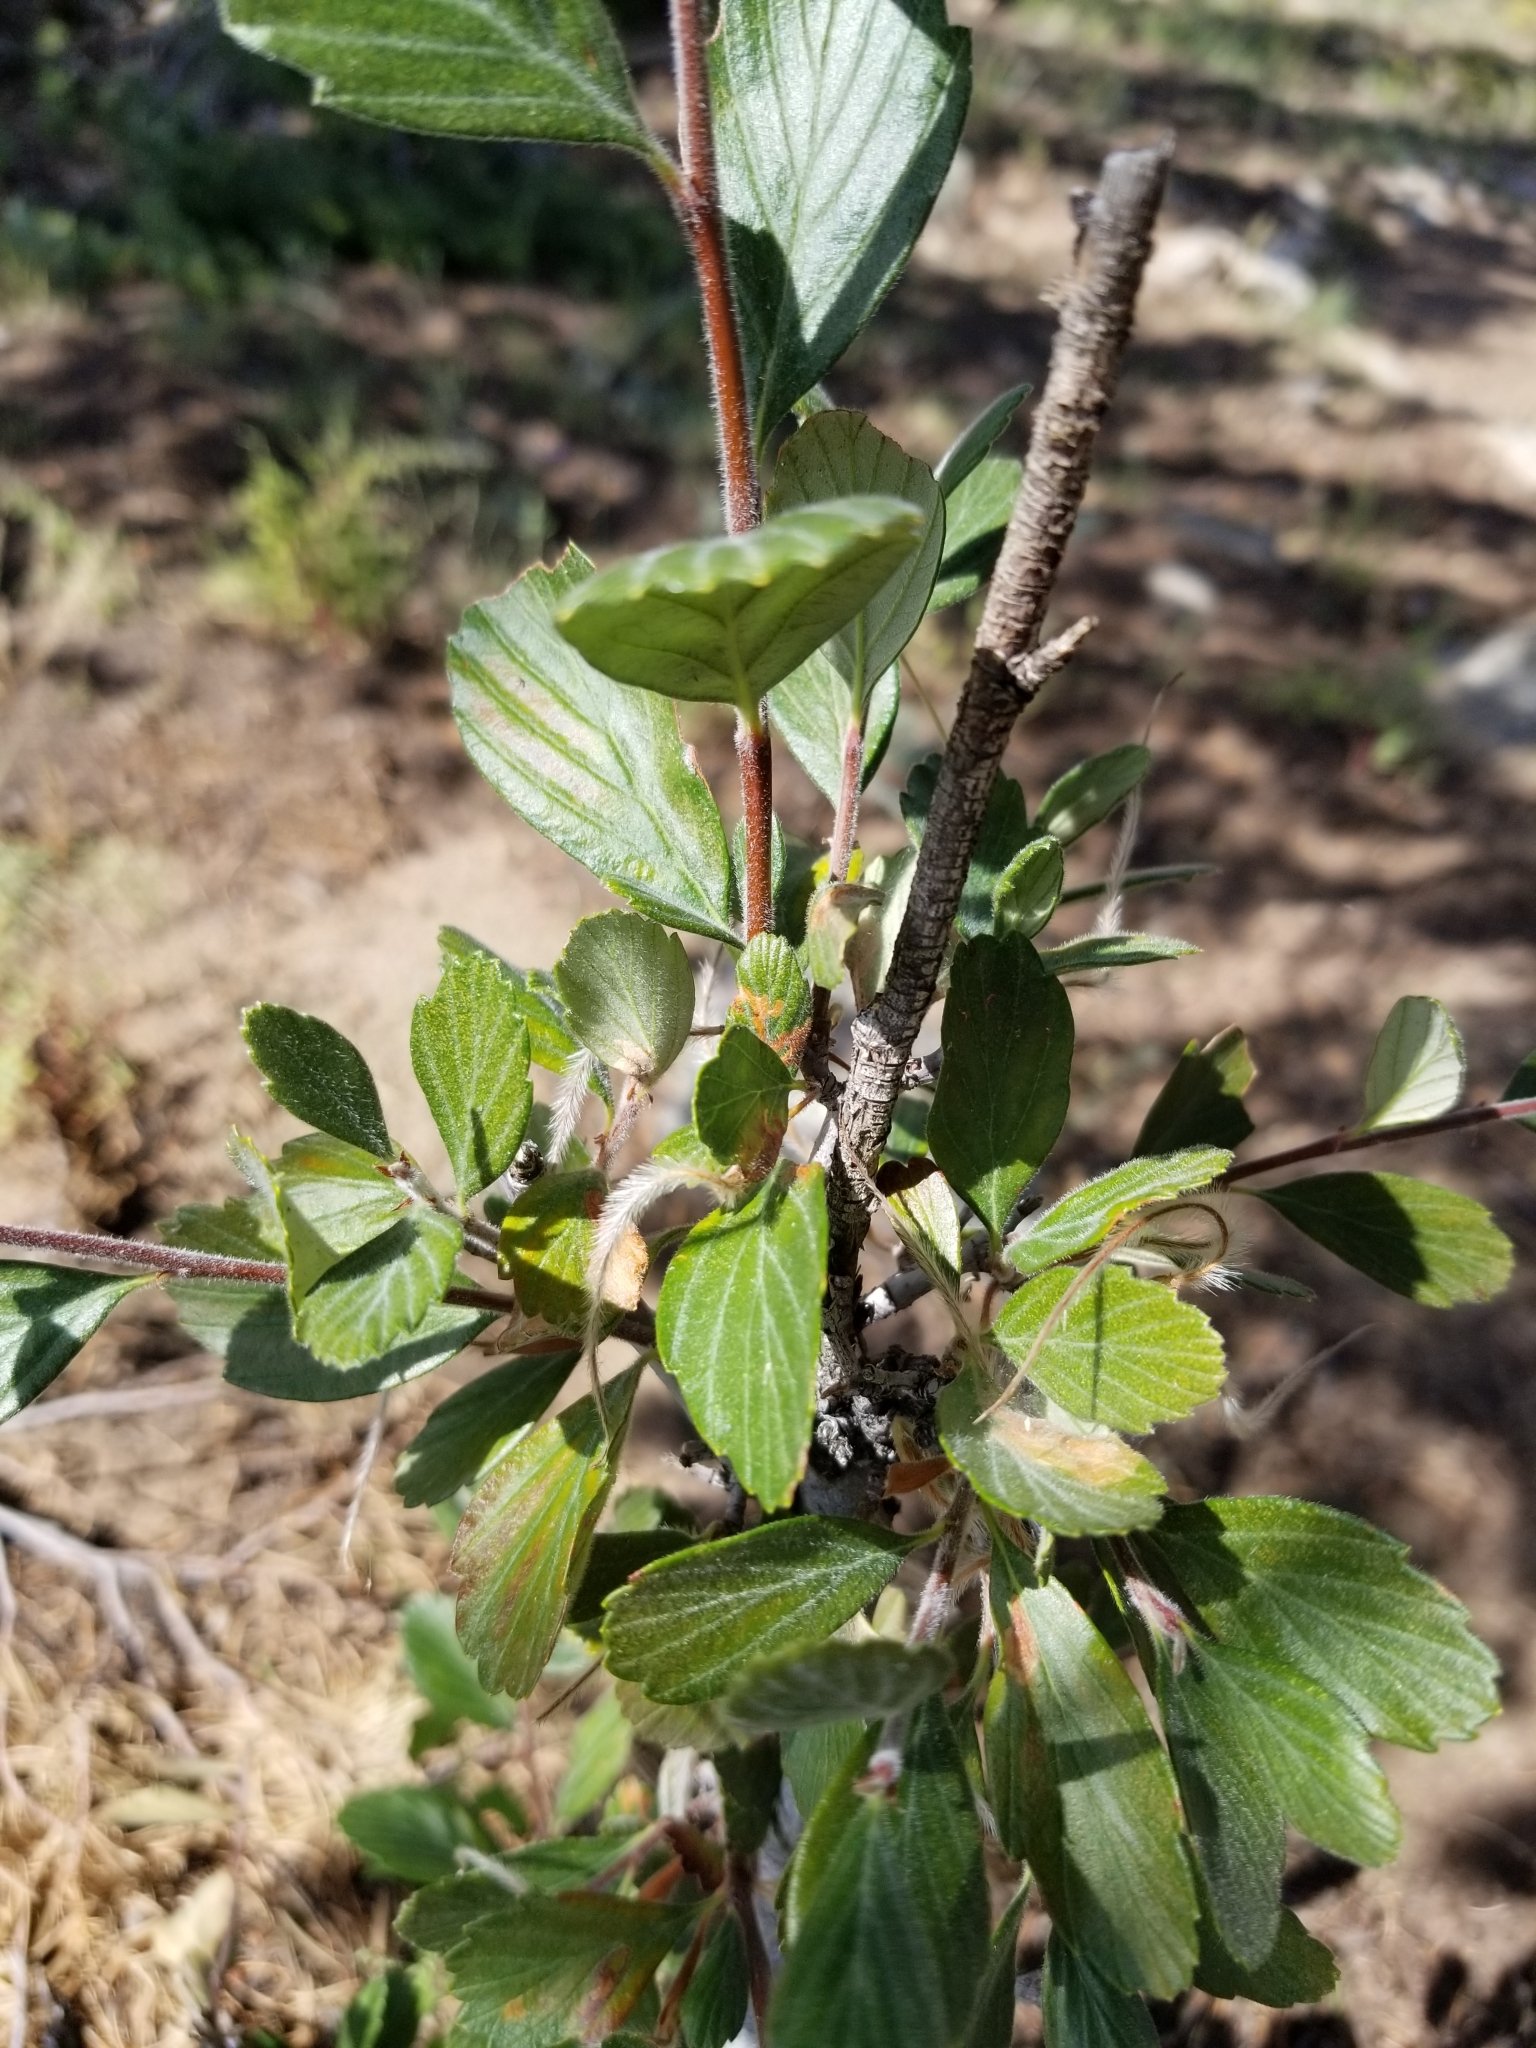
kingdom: Plantae
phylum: Tracheophyta
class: Magnoliopsida
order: Rosales
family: Rosaceae
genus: Cercocarpus
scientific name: Cercocarpus montanus
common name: Alder-leaf cercocarpus
